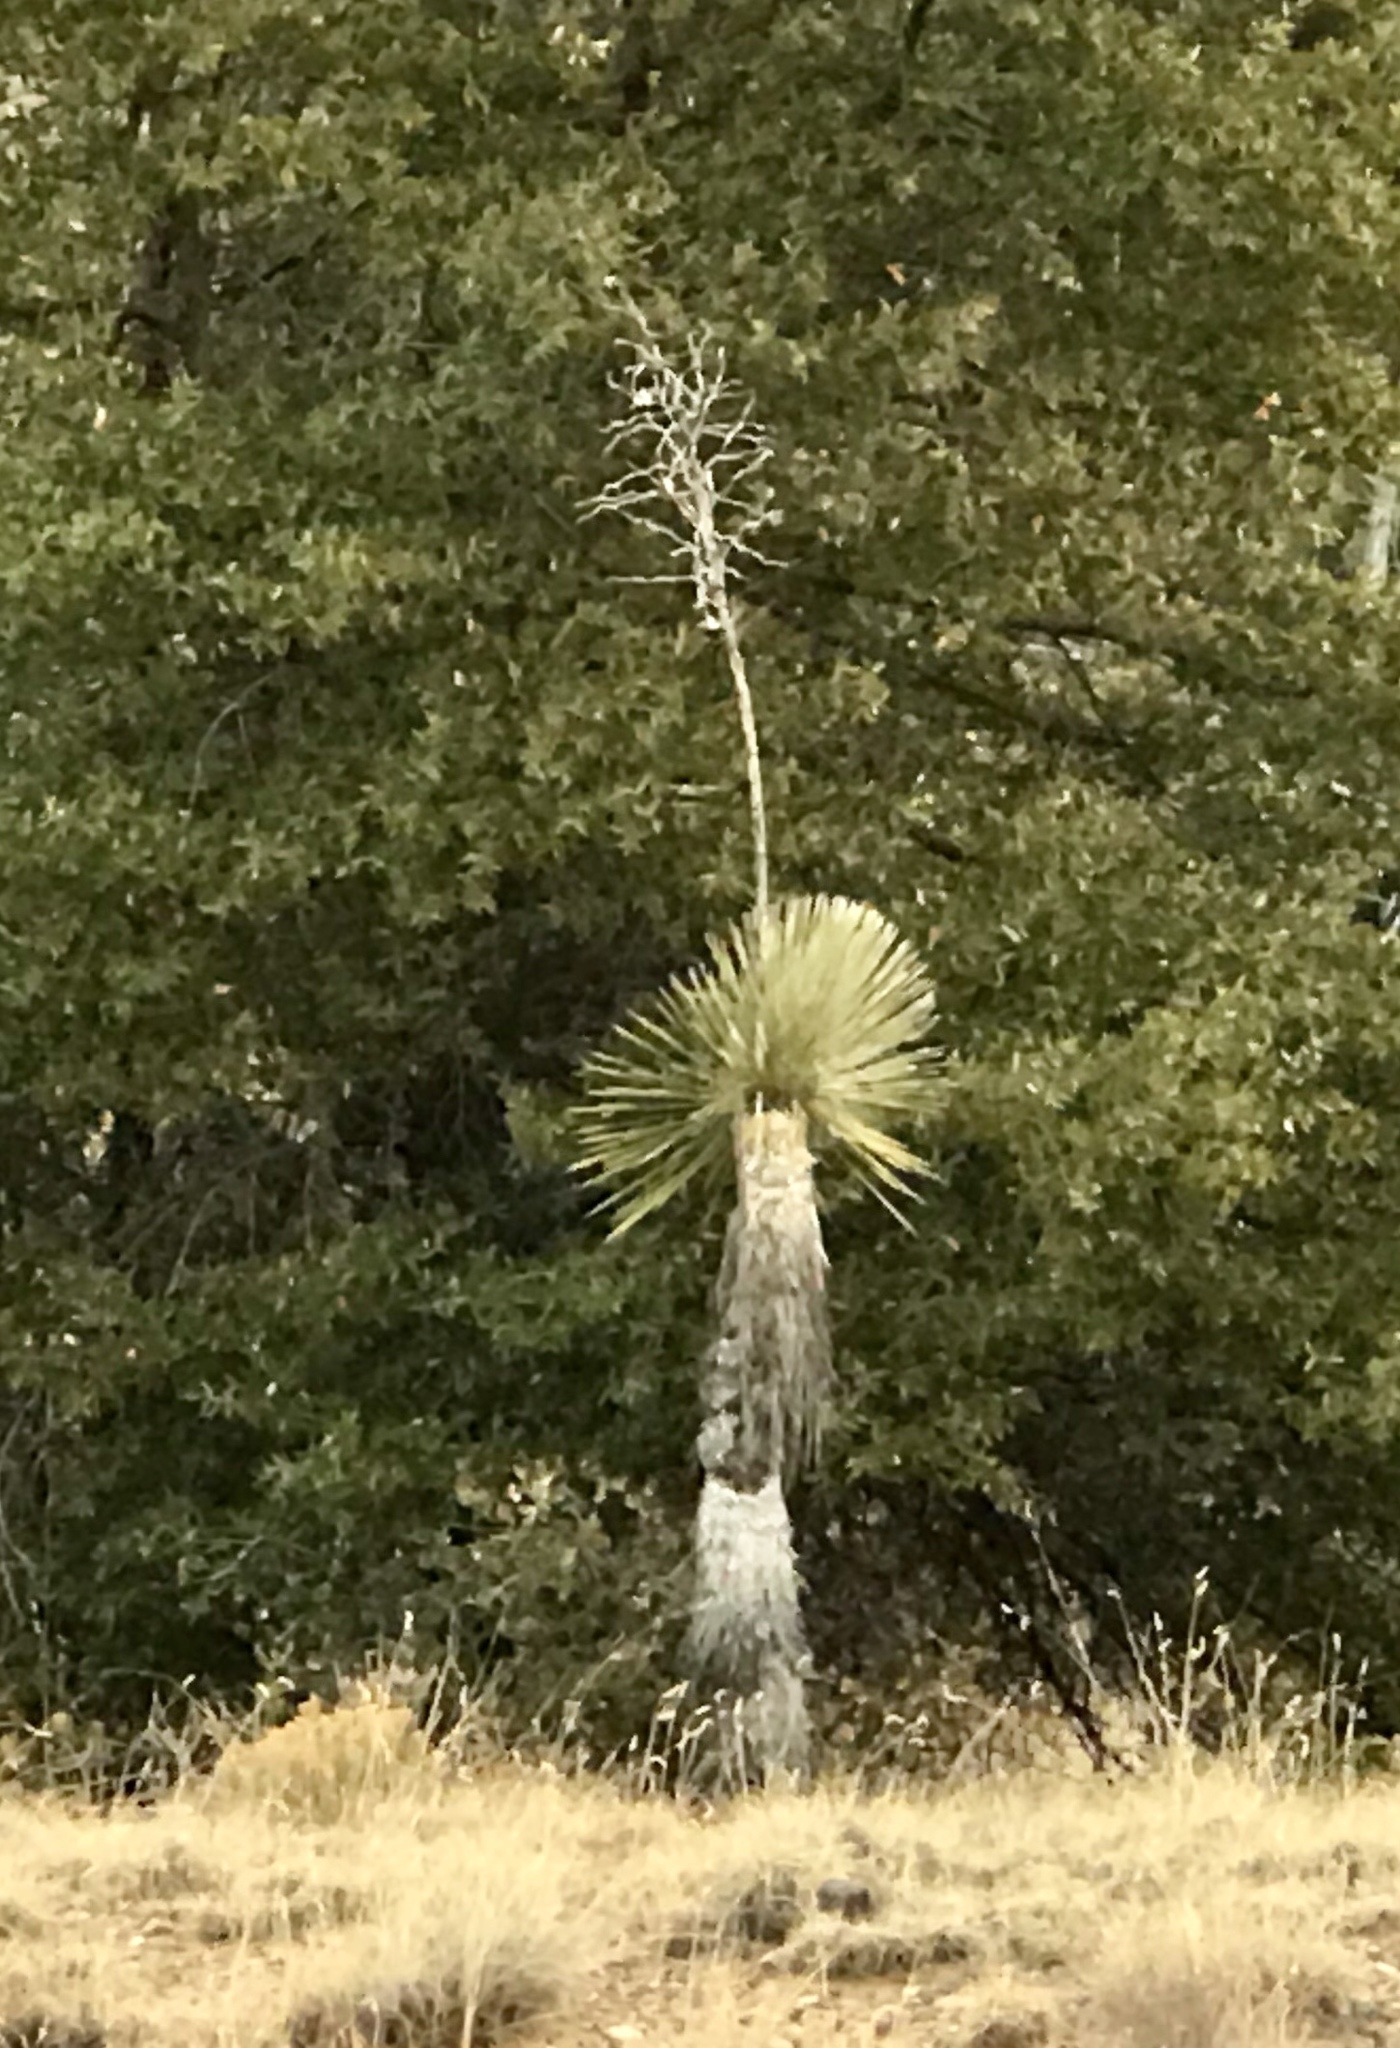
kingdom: Plantae
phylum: Tracheophyta
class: Liliopsida
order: Asparagales
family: Asparagaceae
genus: Yucca
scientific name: Yucca elata
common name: Palmella
